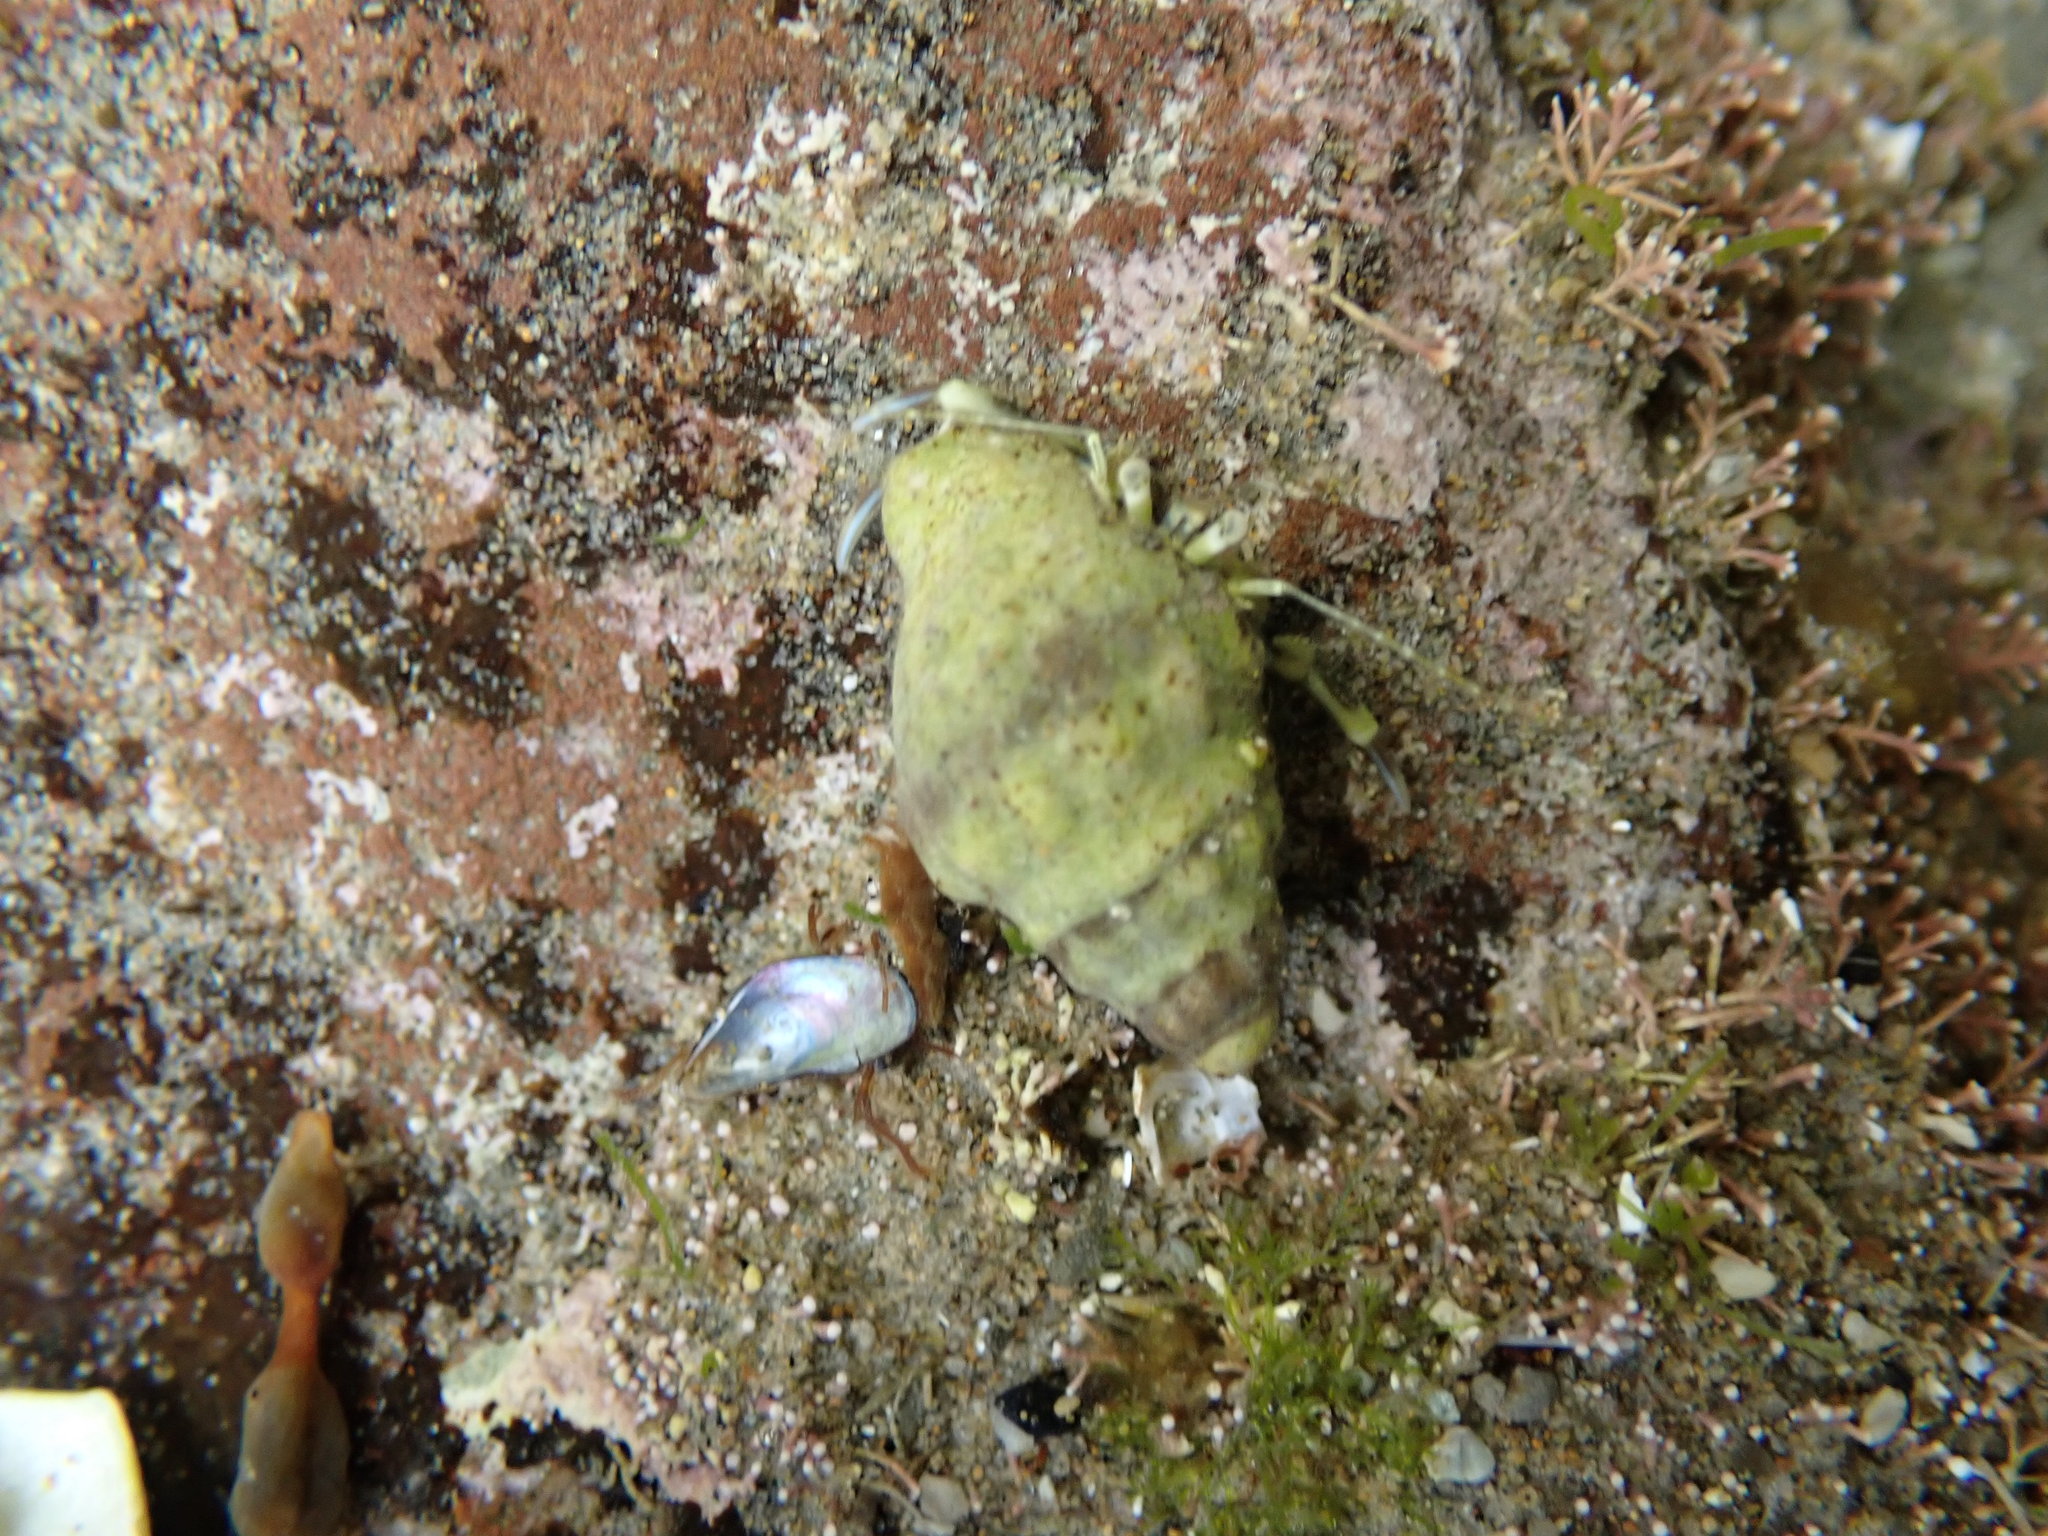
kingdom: Animalia
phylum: Mollusca
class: Gastropoda
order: Neogastropoda
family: Cominellidae
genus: Cominella
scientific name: Cominella glandiformis
